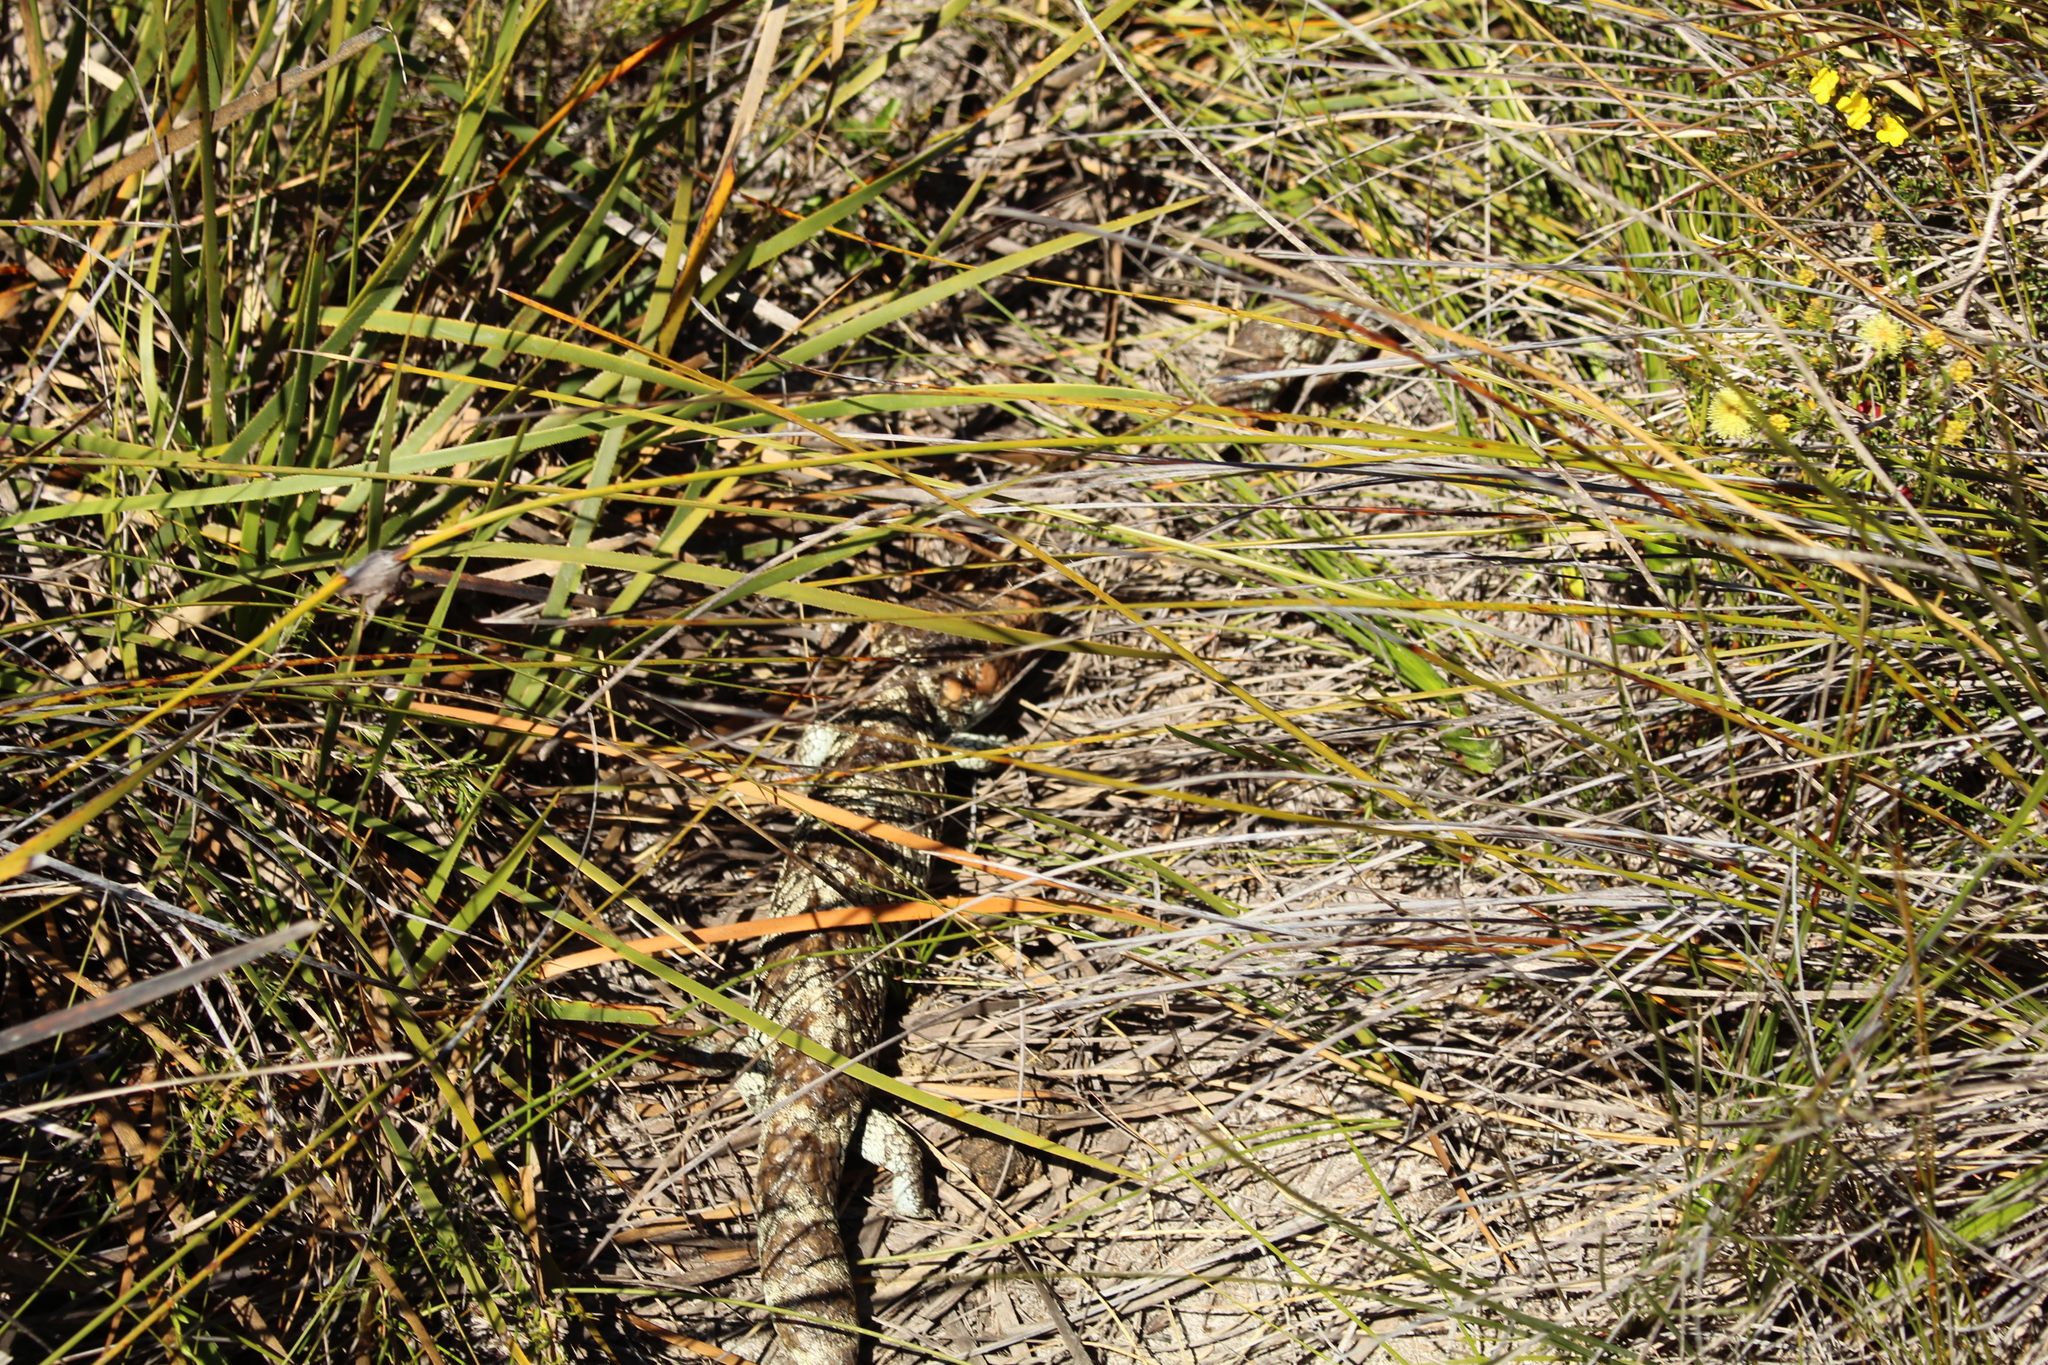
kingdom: Animalia
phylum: Chordata
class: Squamata
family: Scincidae
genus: Tiliqua
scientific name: Tiliqua rugosa
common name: Pinecone lizard
